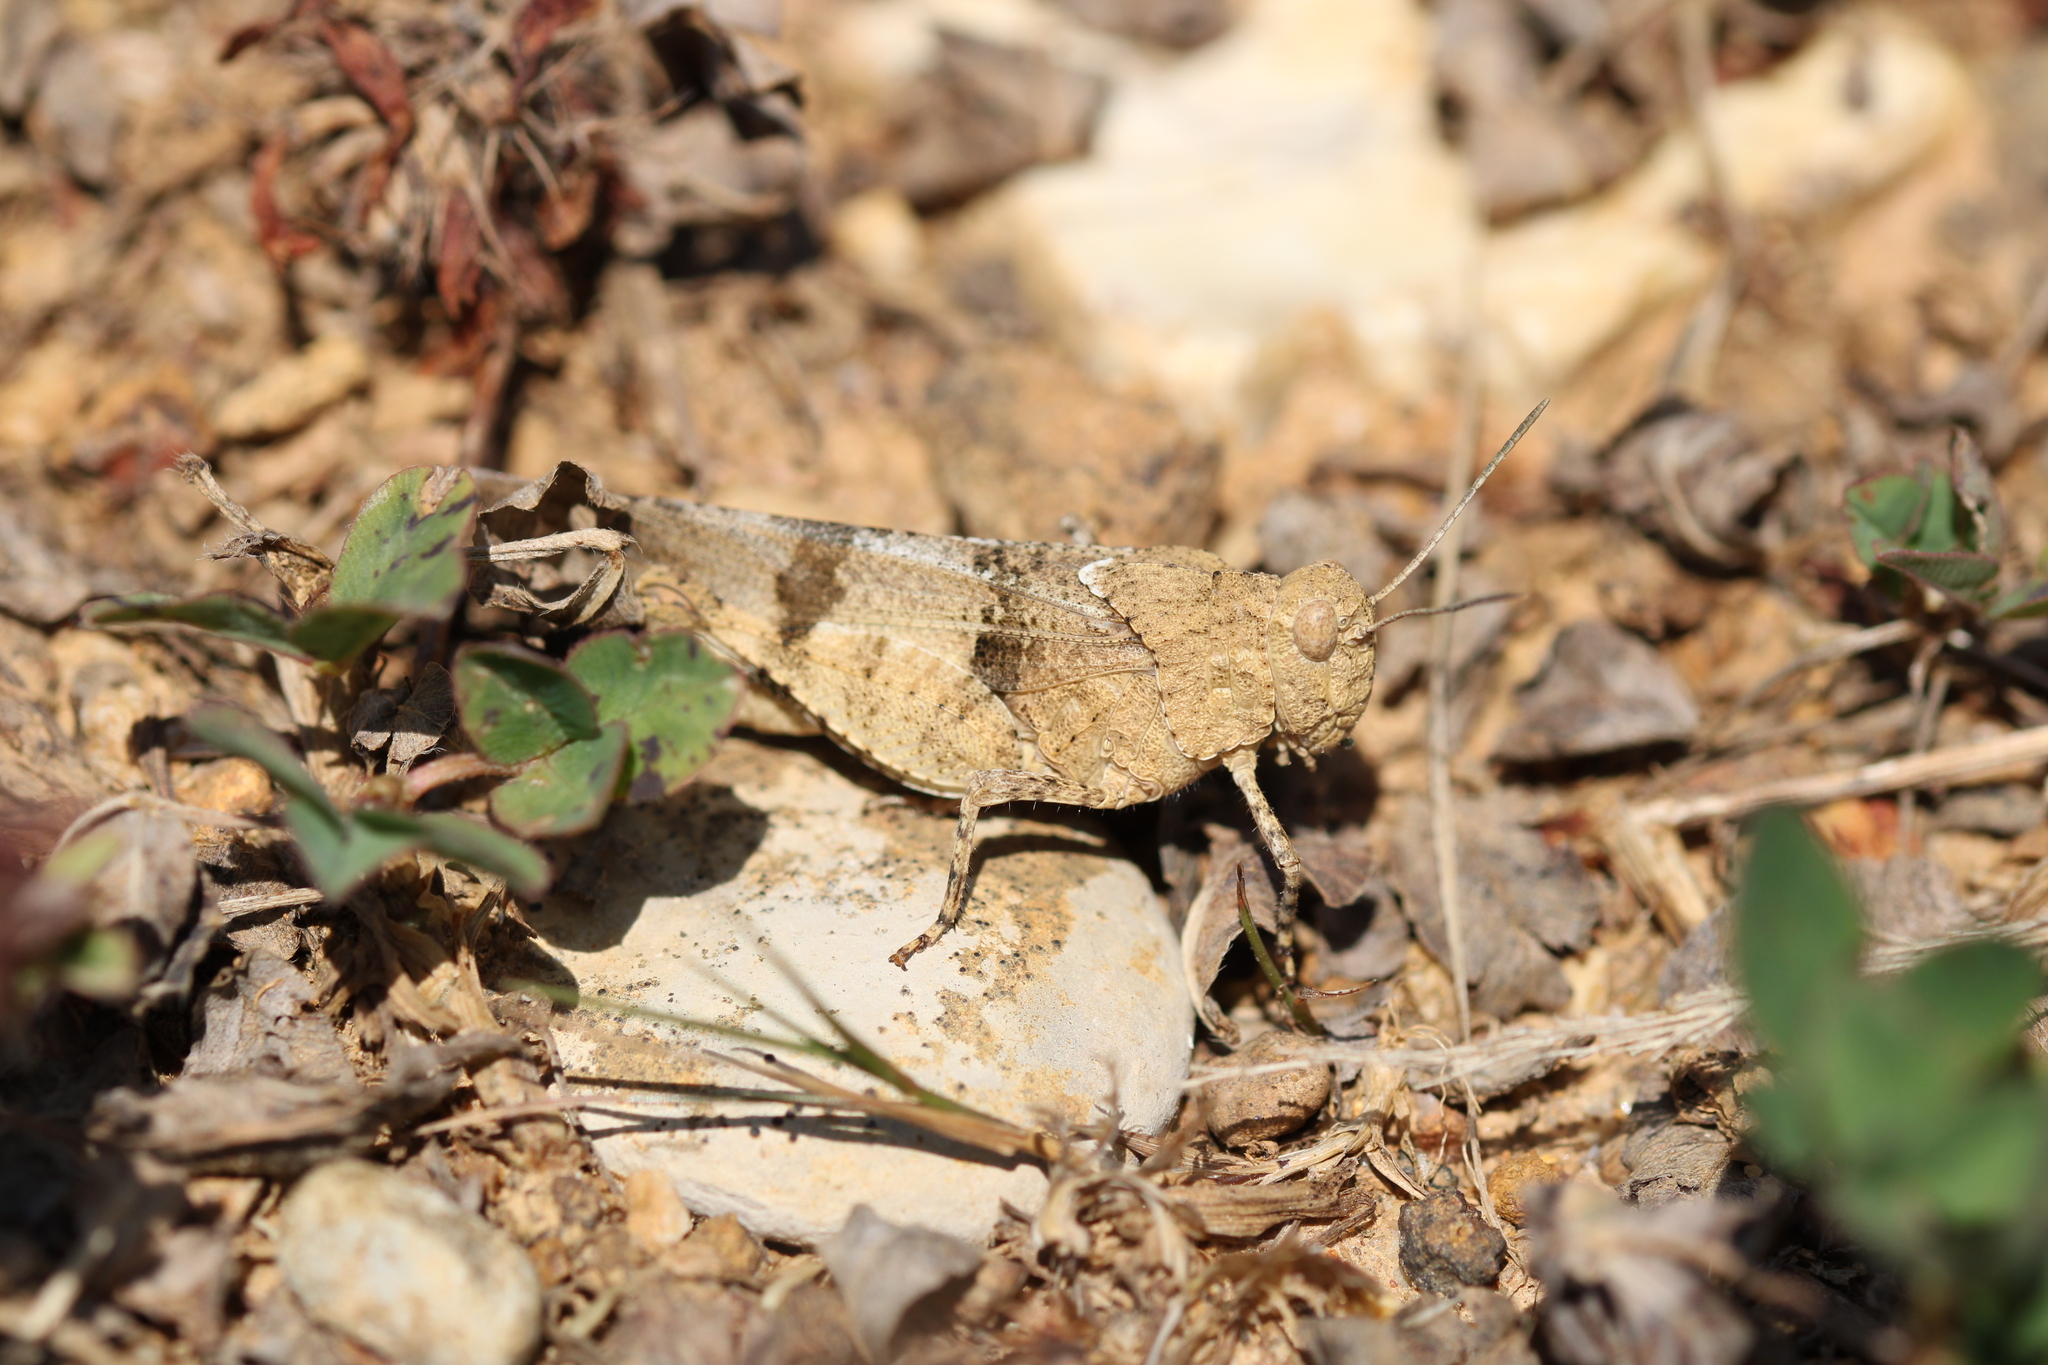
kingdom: Animalia
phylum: Arthropoda
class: Insecta
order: Orthoptera
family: Acrididae
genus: Oedipoda
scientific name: Oedipoda caerulescens
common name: Blue-winged grasshopper
